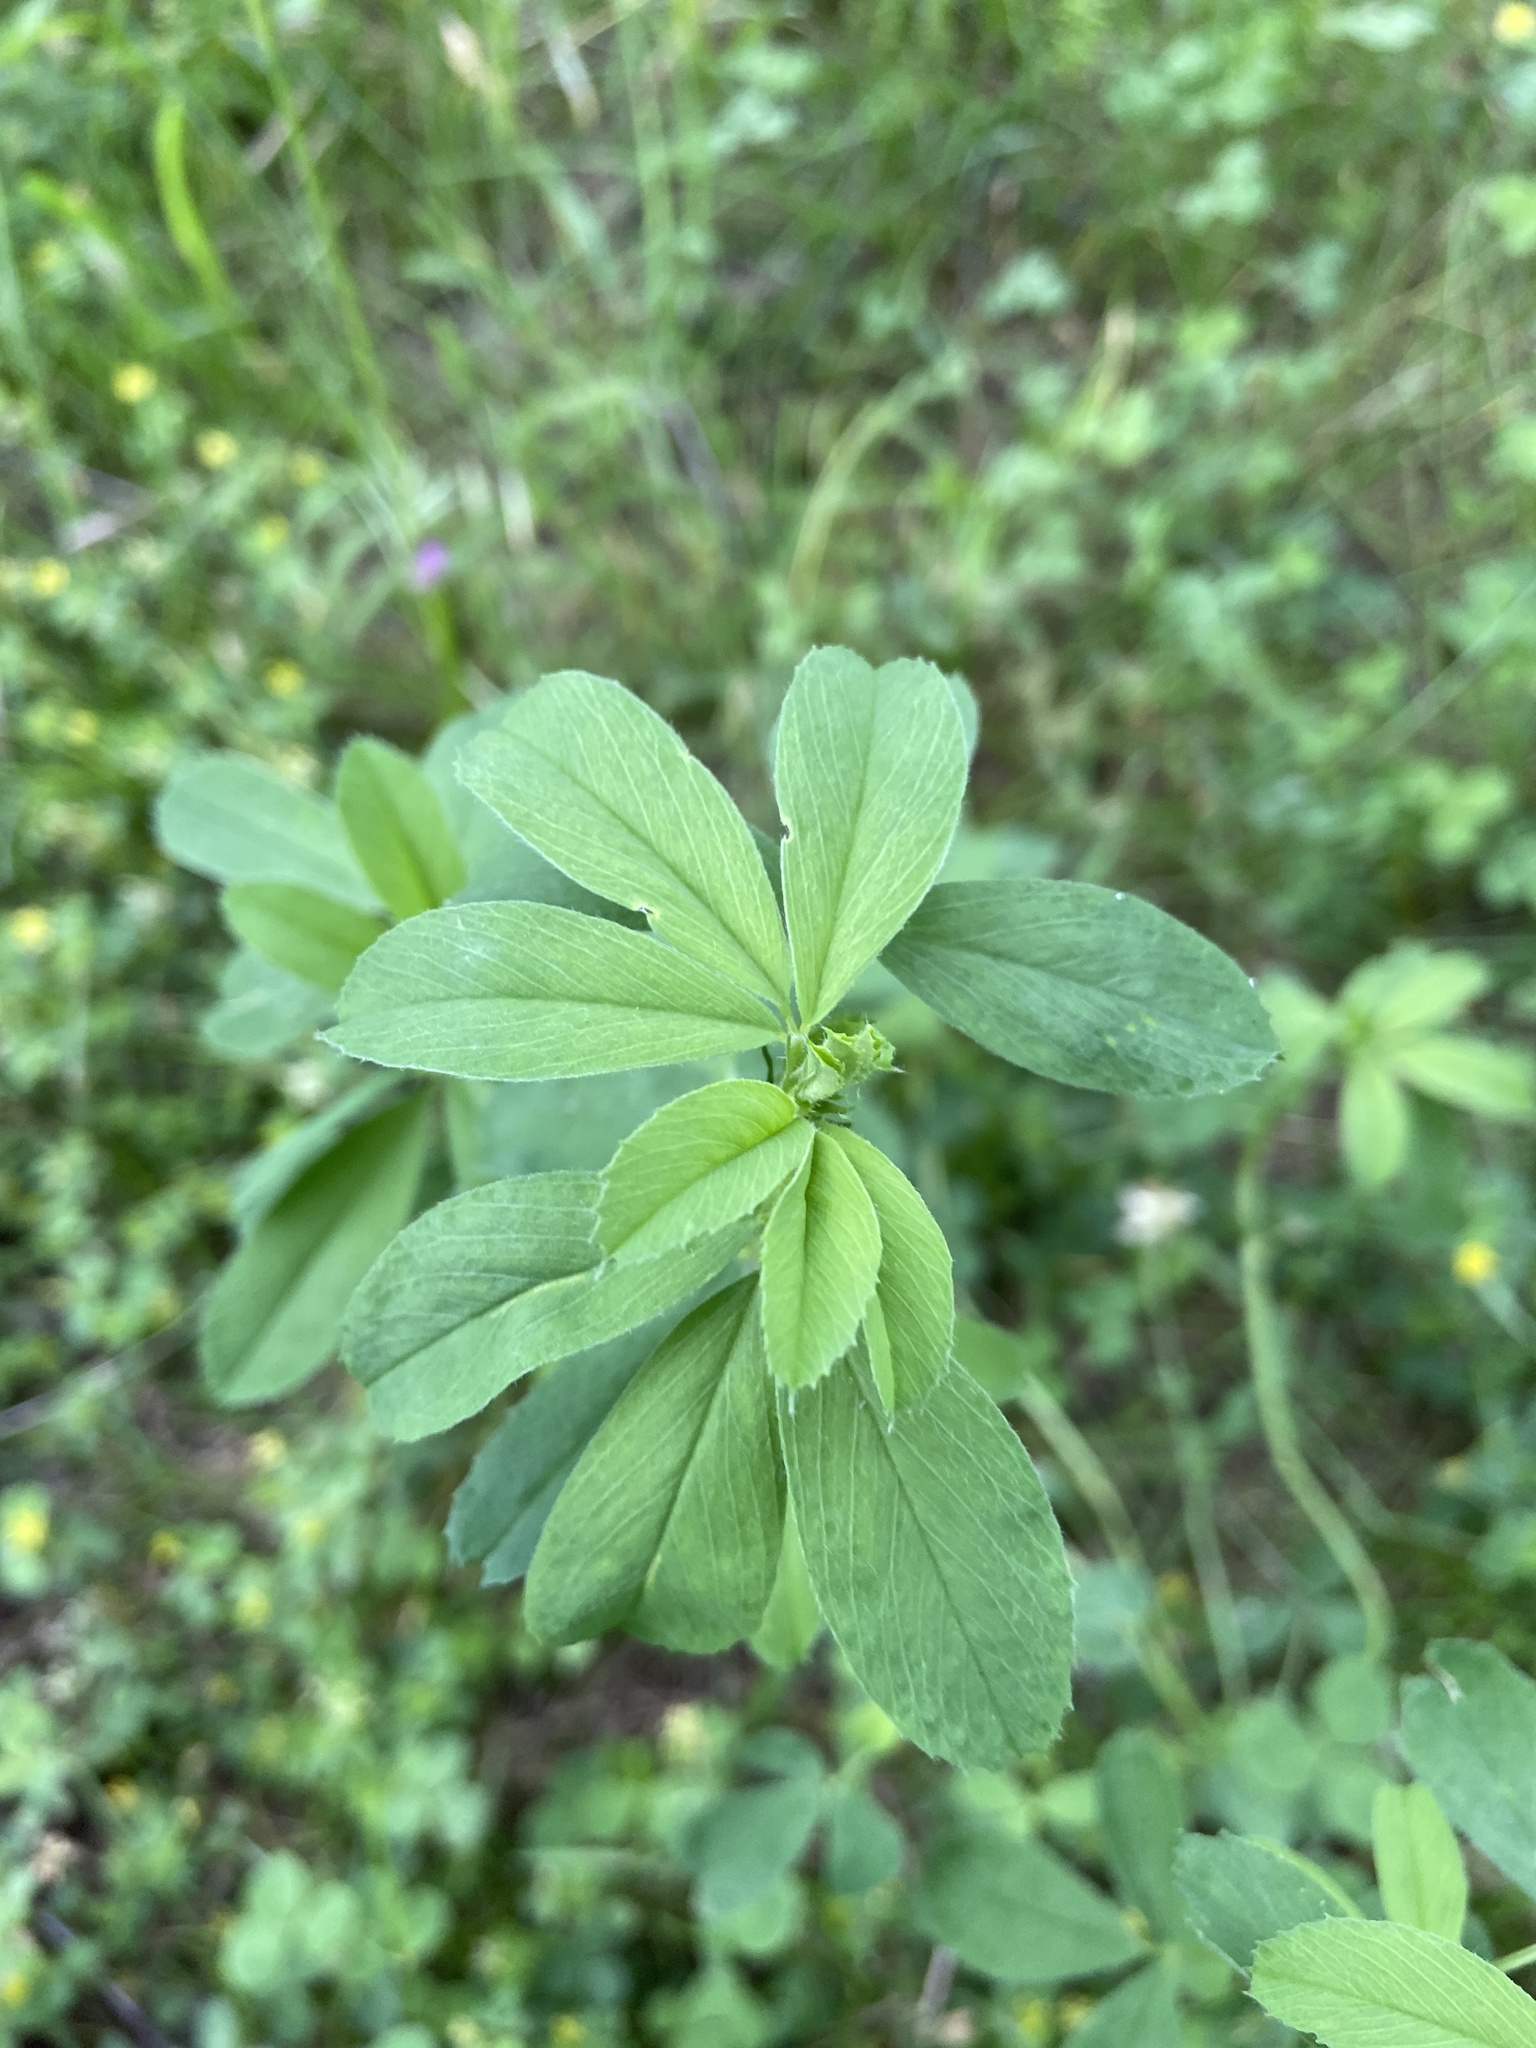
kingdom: Plantae
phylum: Tracheophyta
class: Magnoliopsida
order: Fabales
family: Fabaceae
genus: Medicago
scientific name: Medicago sativa
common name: Alfalfa
